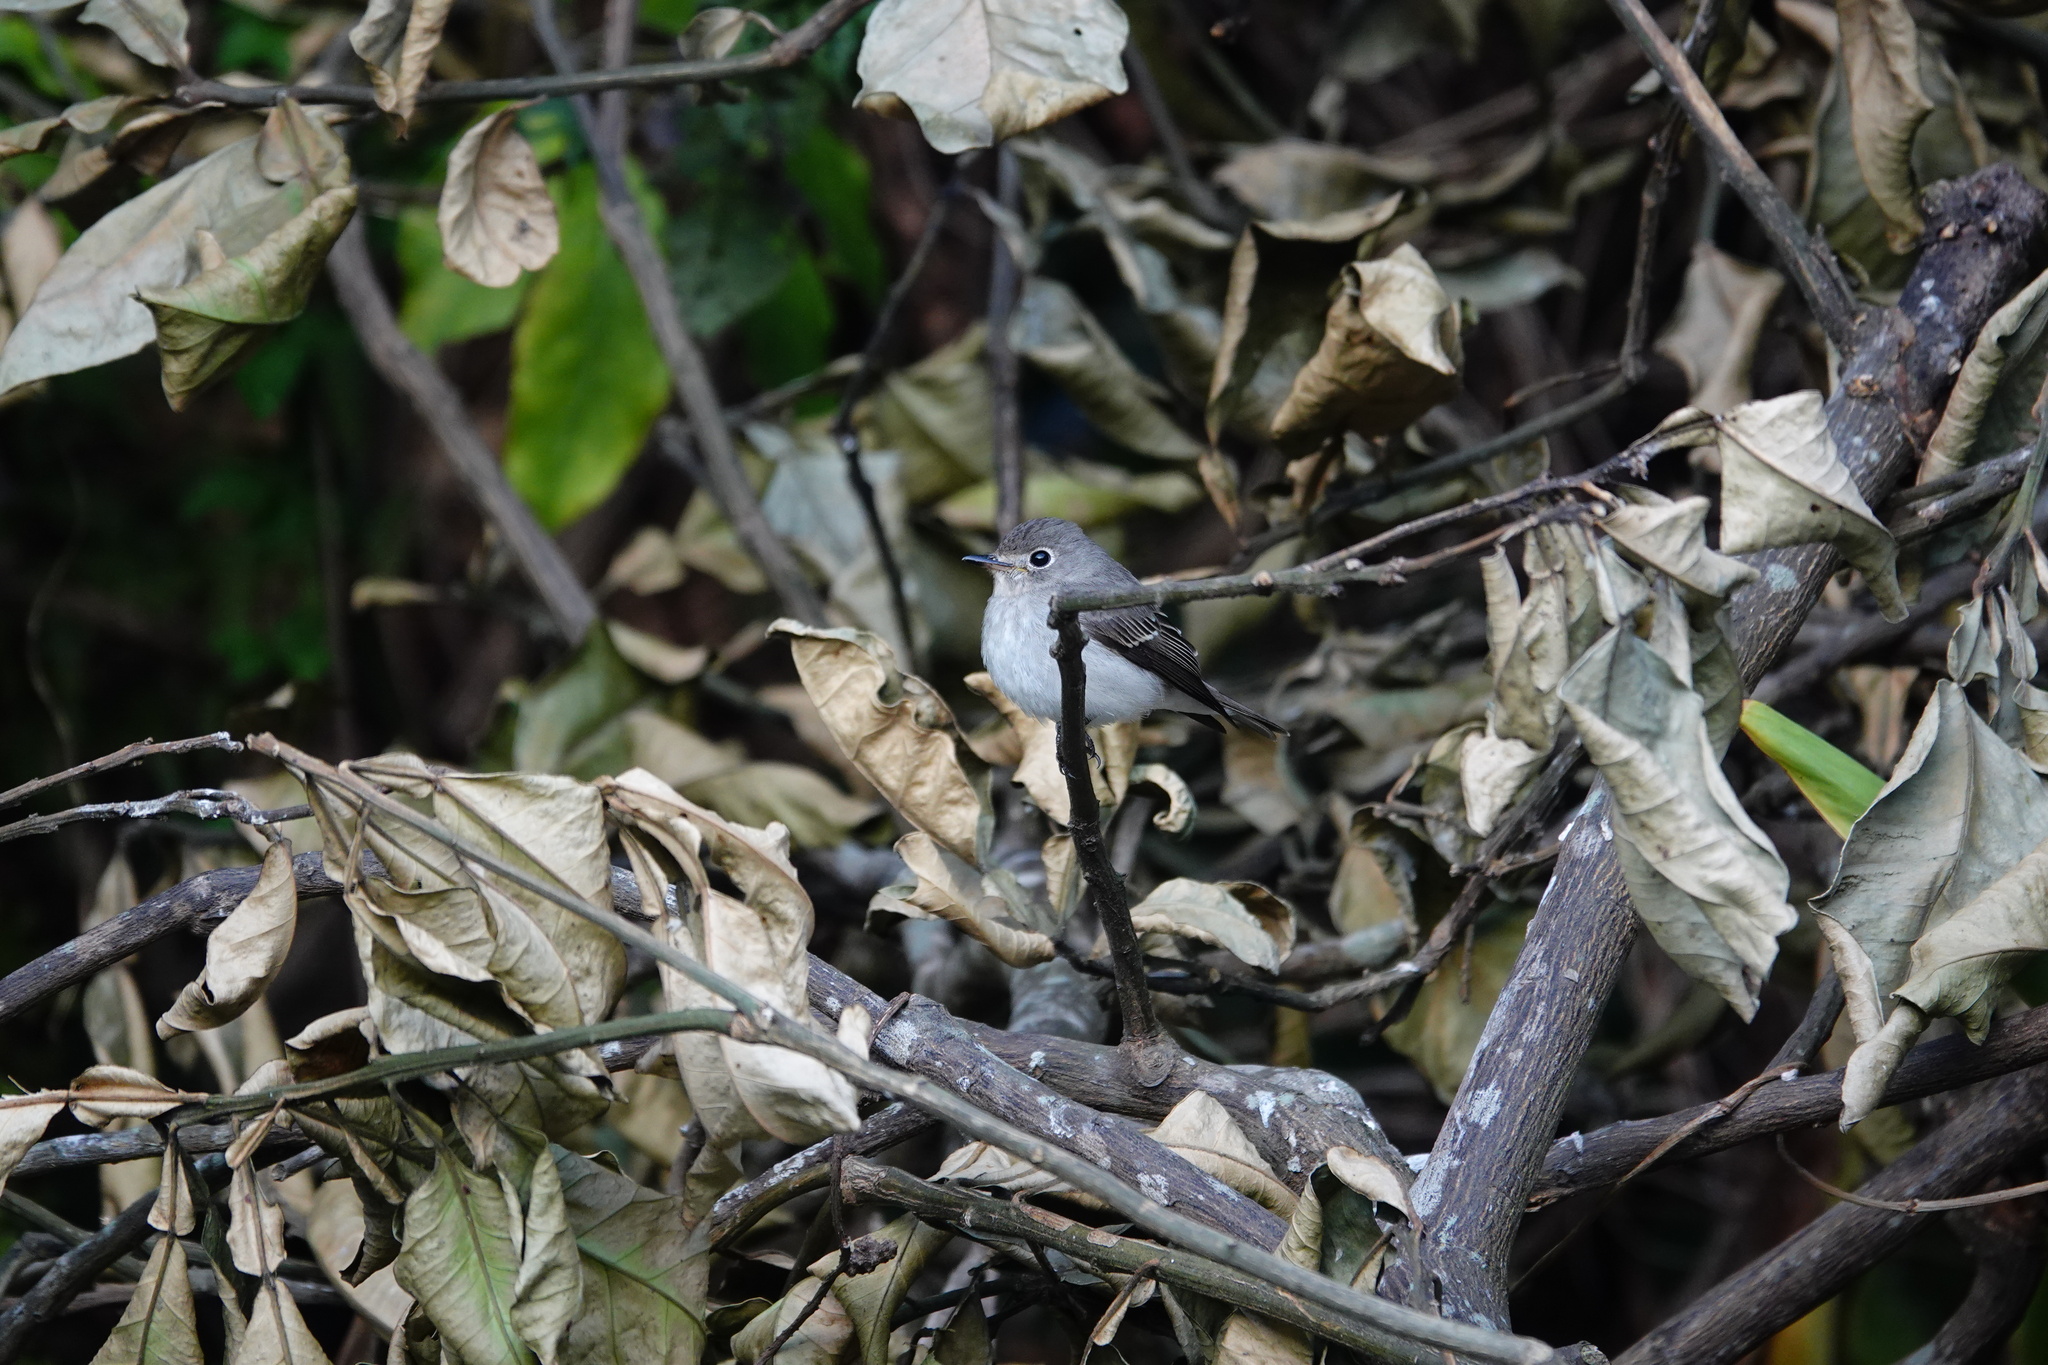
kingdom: Animalia
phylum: Chordata
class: Aves
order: Passeriformes
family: Muscicapidae
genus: Muscicapa
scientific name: Muscicapa latirostris
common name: Asian brown flycatcher
